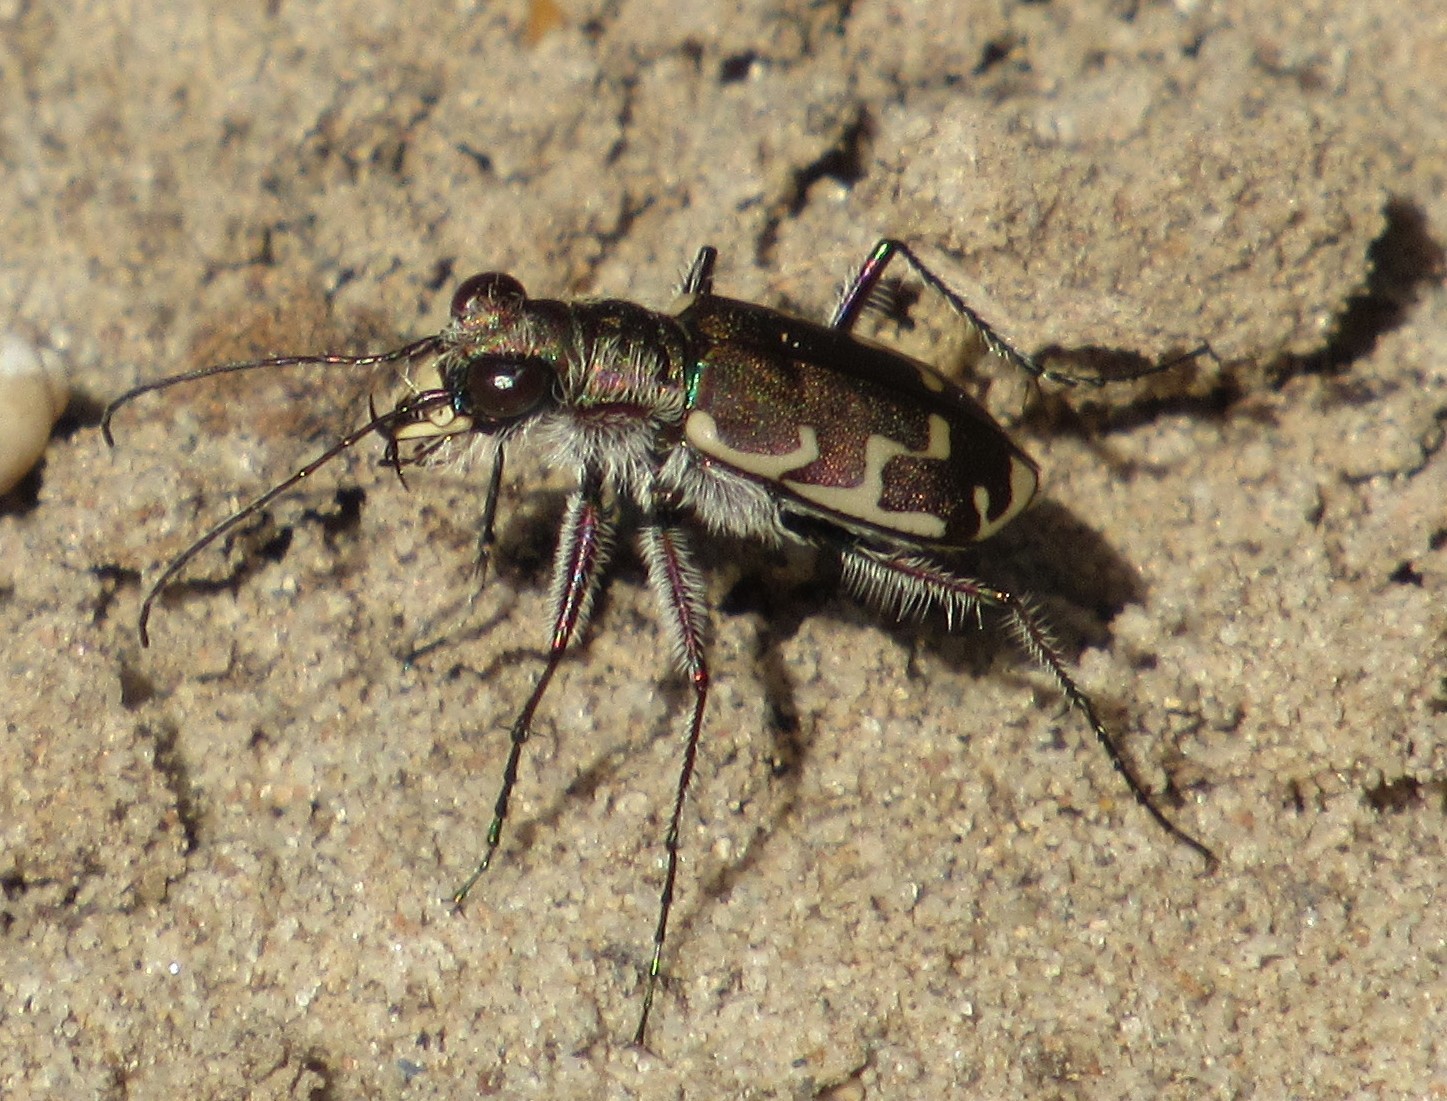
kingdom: Animalia
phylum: Arthropoda
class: Insecta
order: Coleoptera
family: Carabidae
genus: Cicindela
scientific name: Cicindela repanda
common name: Bronzed tiger beetle
